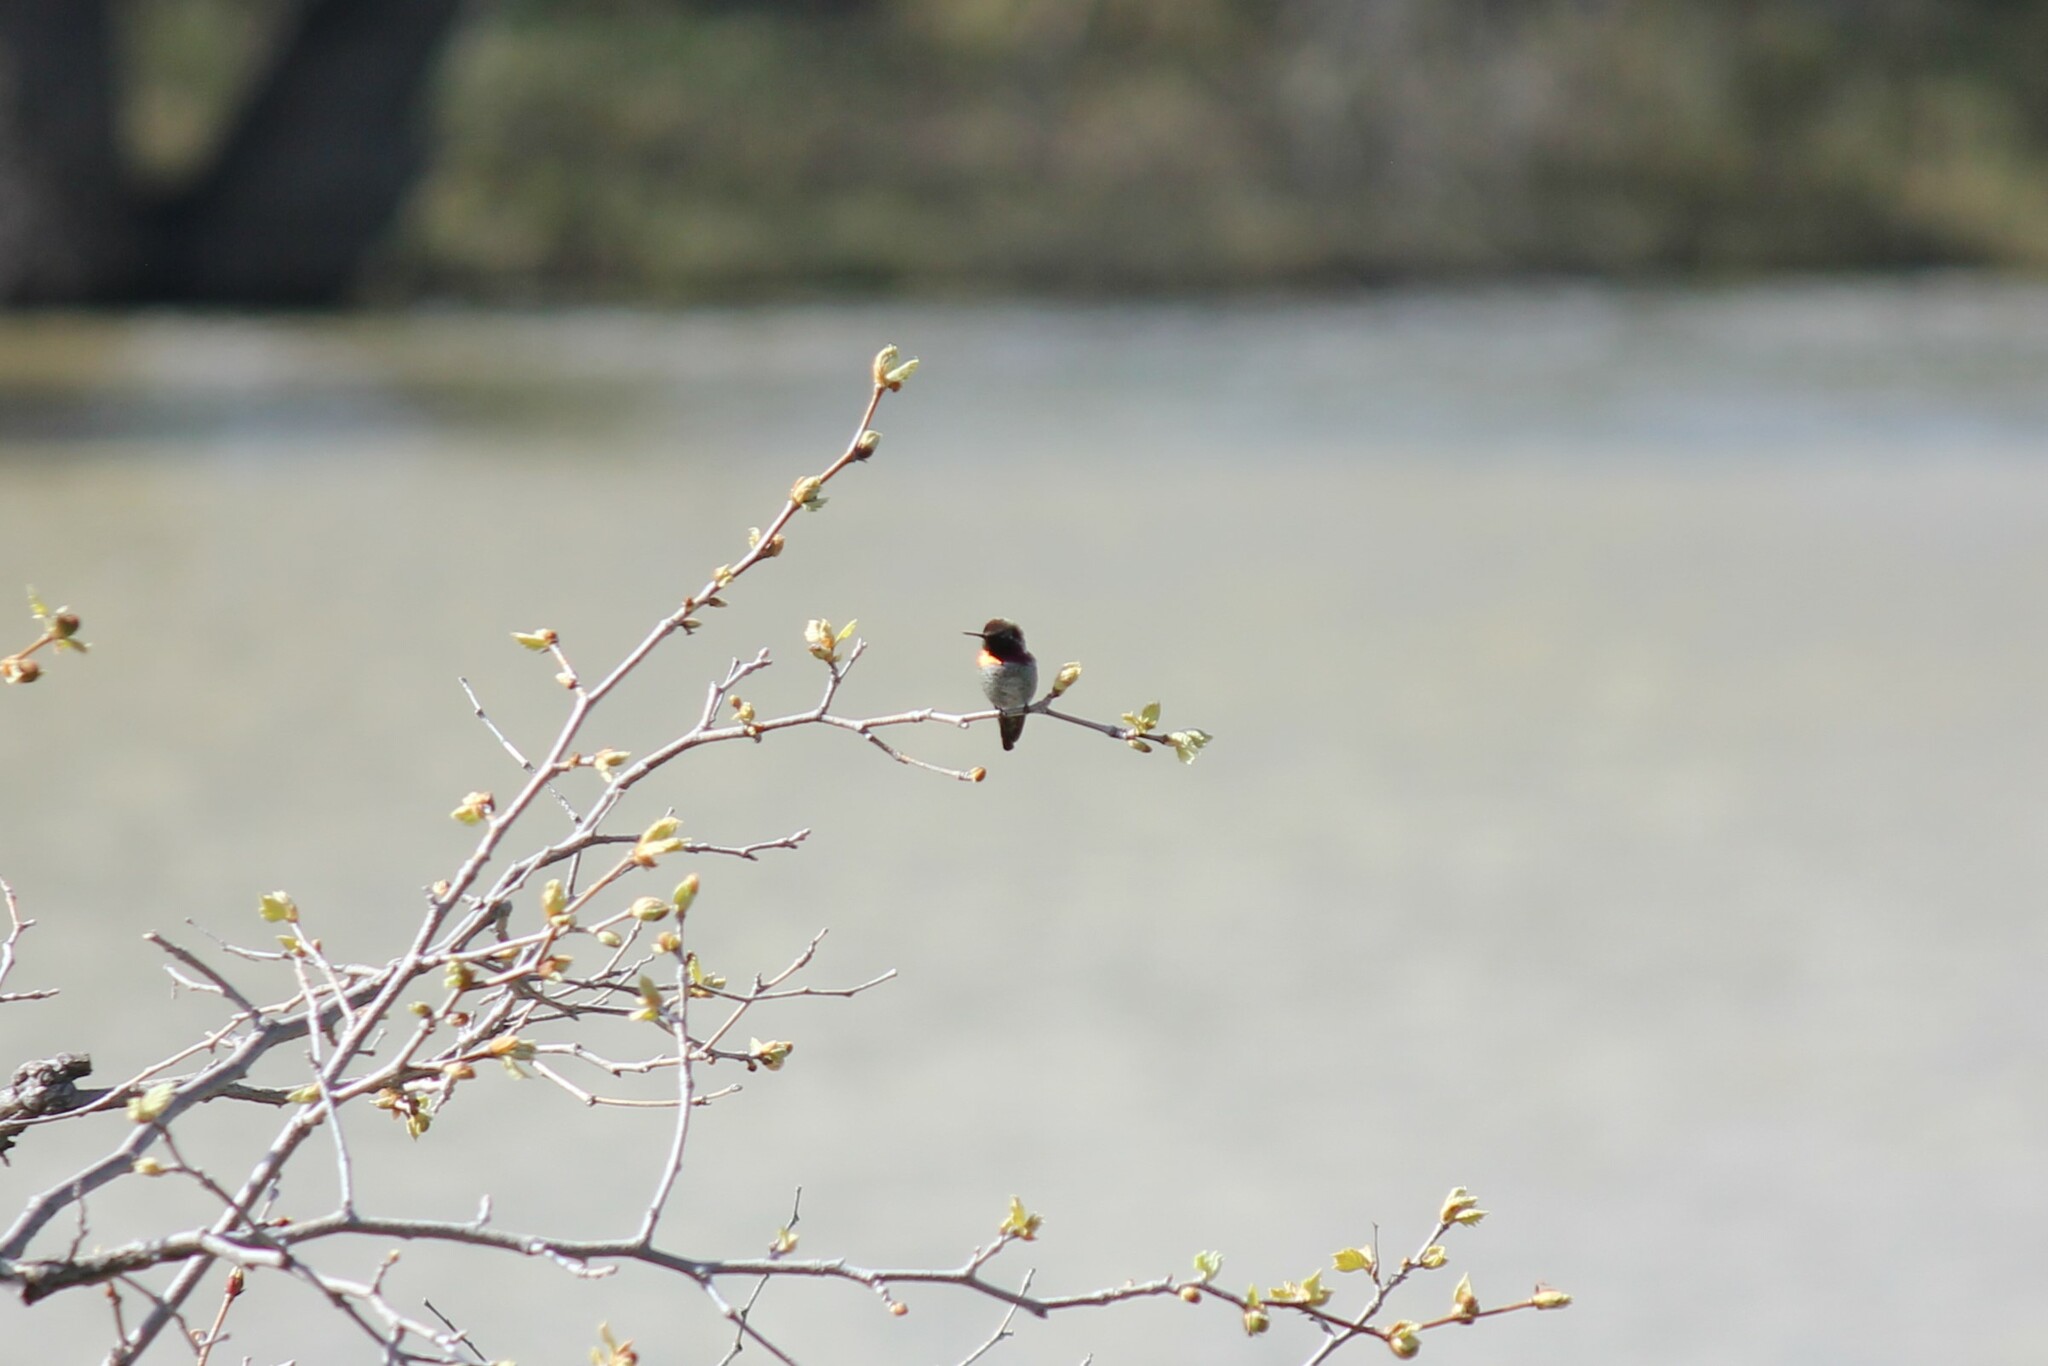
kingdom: Animalia
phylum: Chordata
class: Aves
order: Apodiformes
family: Trochilidae
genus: Calypte
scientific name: Calypte anna
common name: Anna's hummingbird
